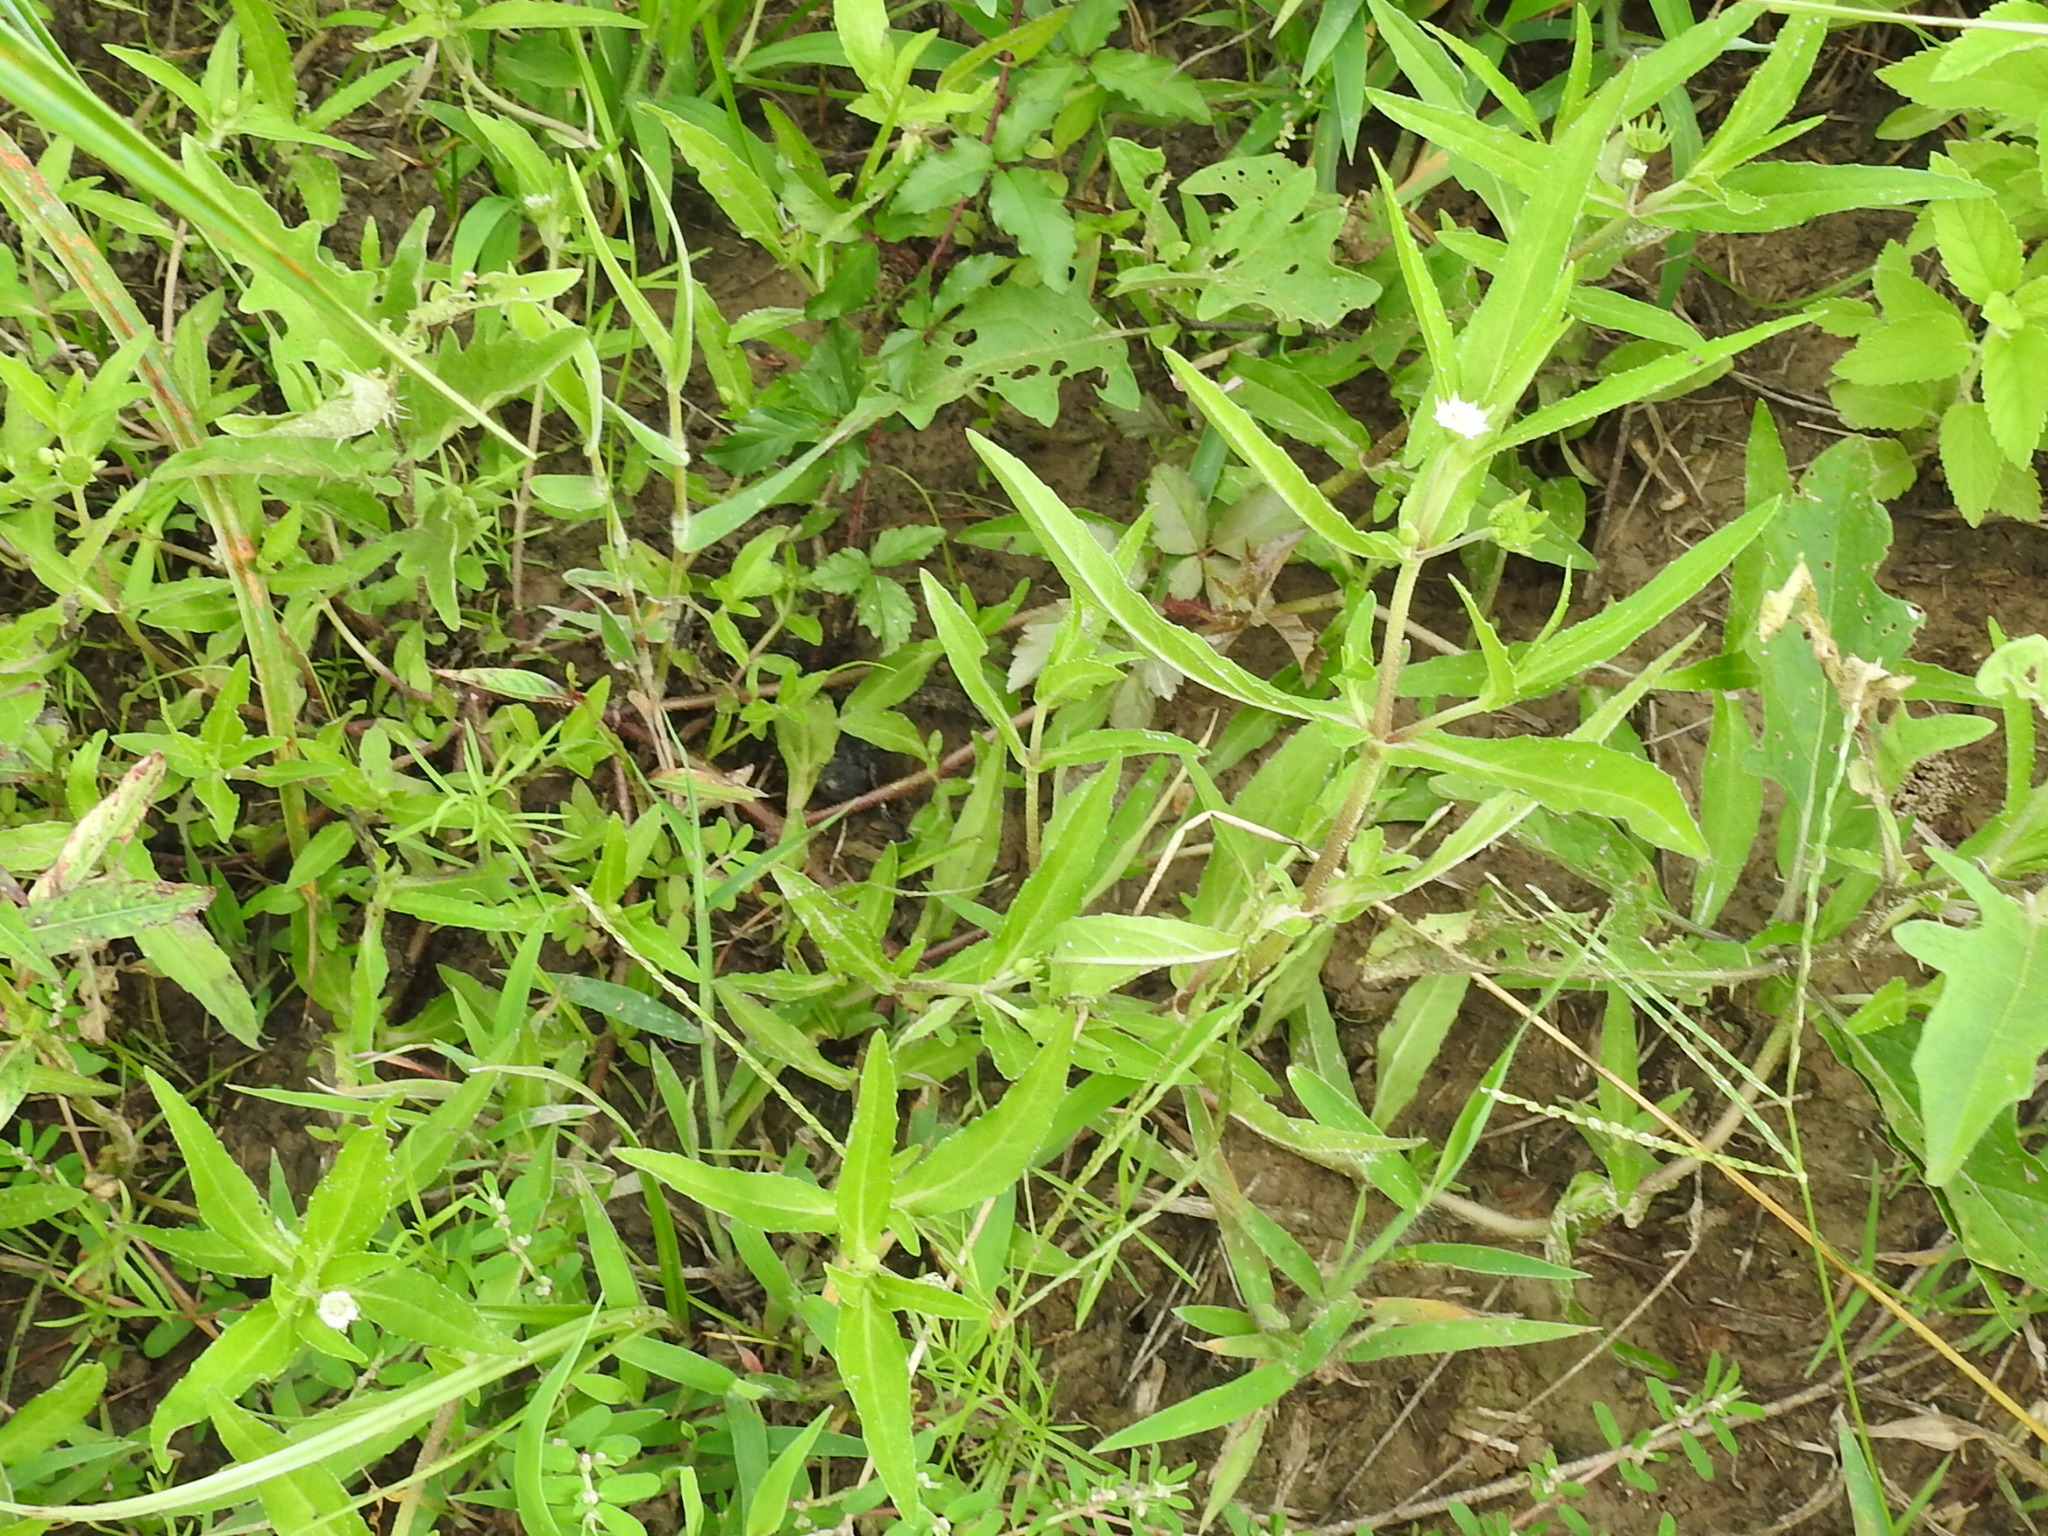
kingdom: Plantae
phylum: Tracheophyta
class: Magnoliopsida
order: Asterales
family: Asteraceae
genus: Eclipta
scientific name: Eclipta prostrata
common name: False daisy
